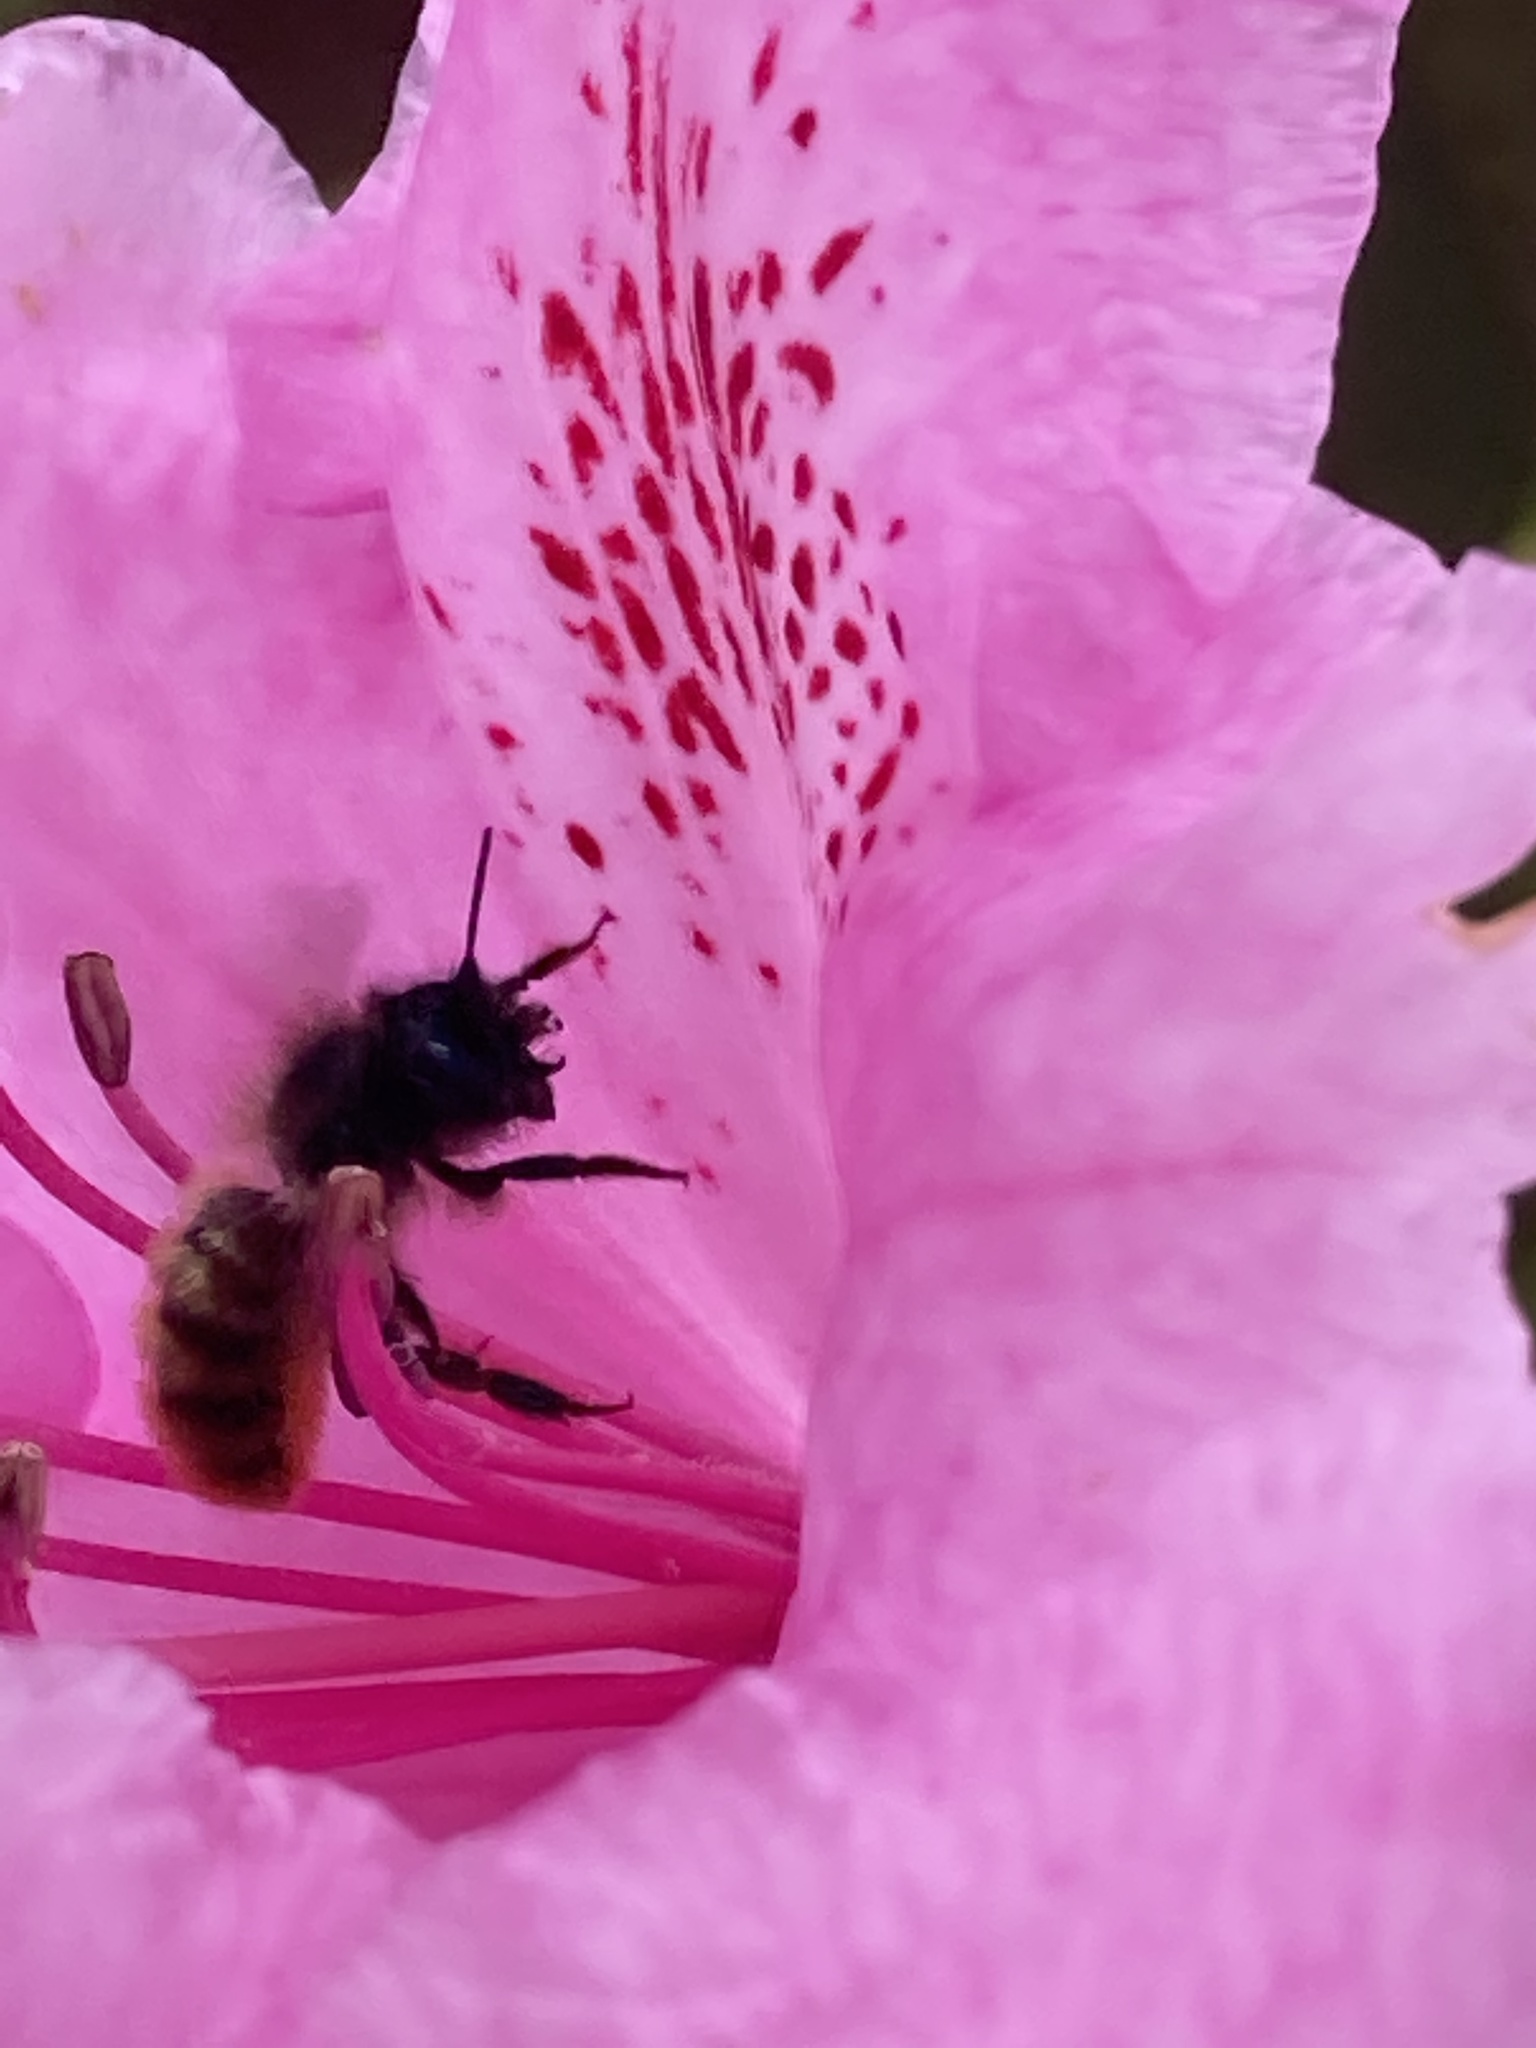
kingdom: Animalia
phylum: Arthropoda
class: Insecta
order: Hymenoptera
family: Megachilidae
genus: Osmia
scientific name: Osmia bicornis
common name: Red mason bee
